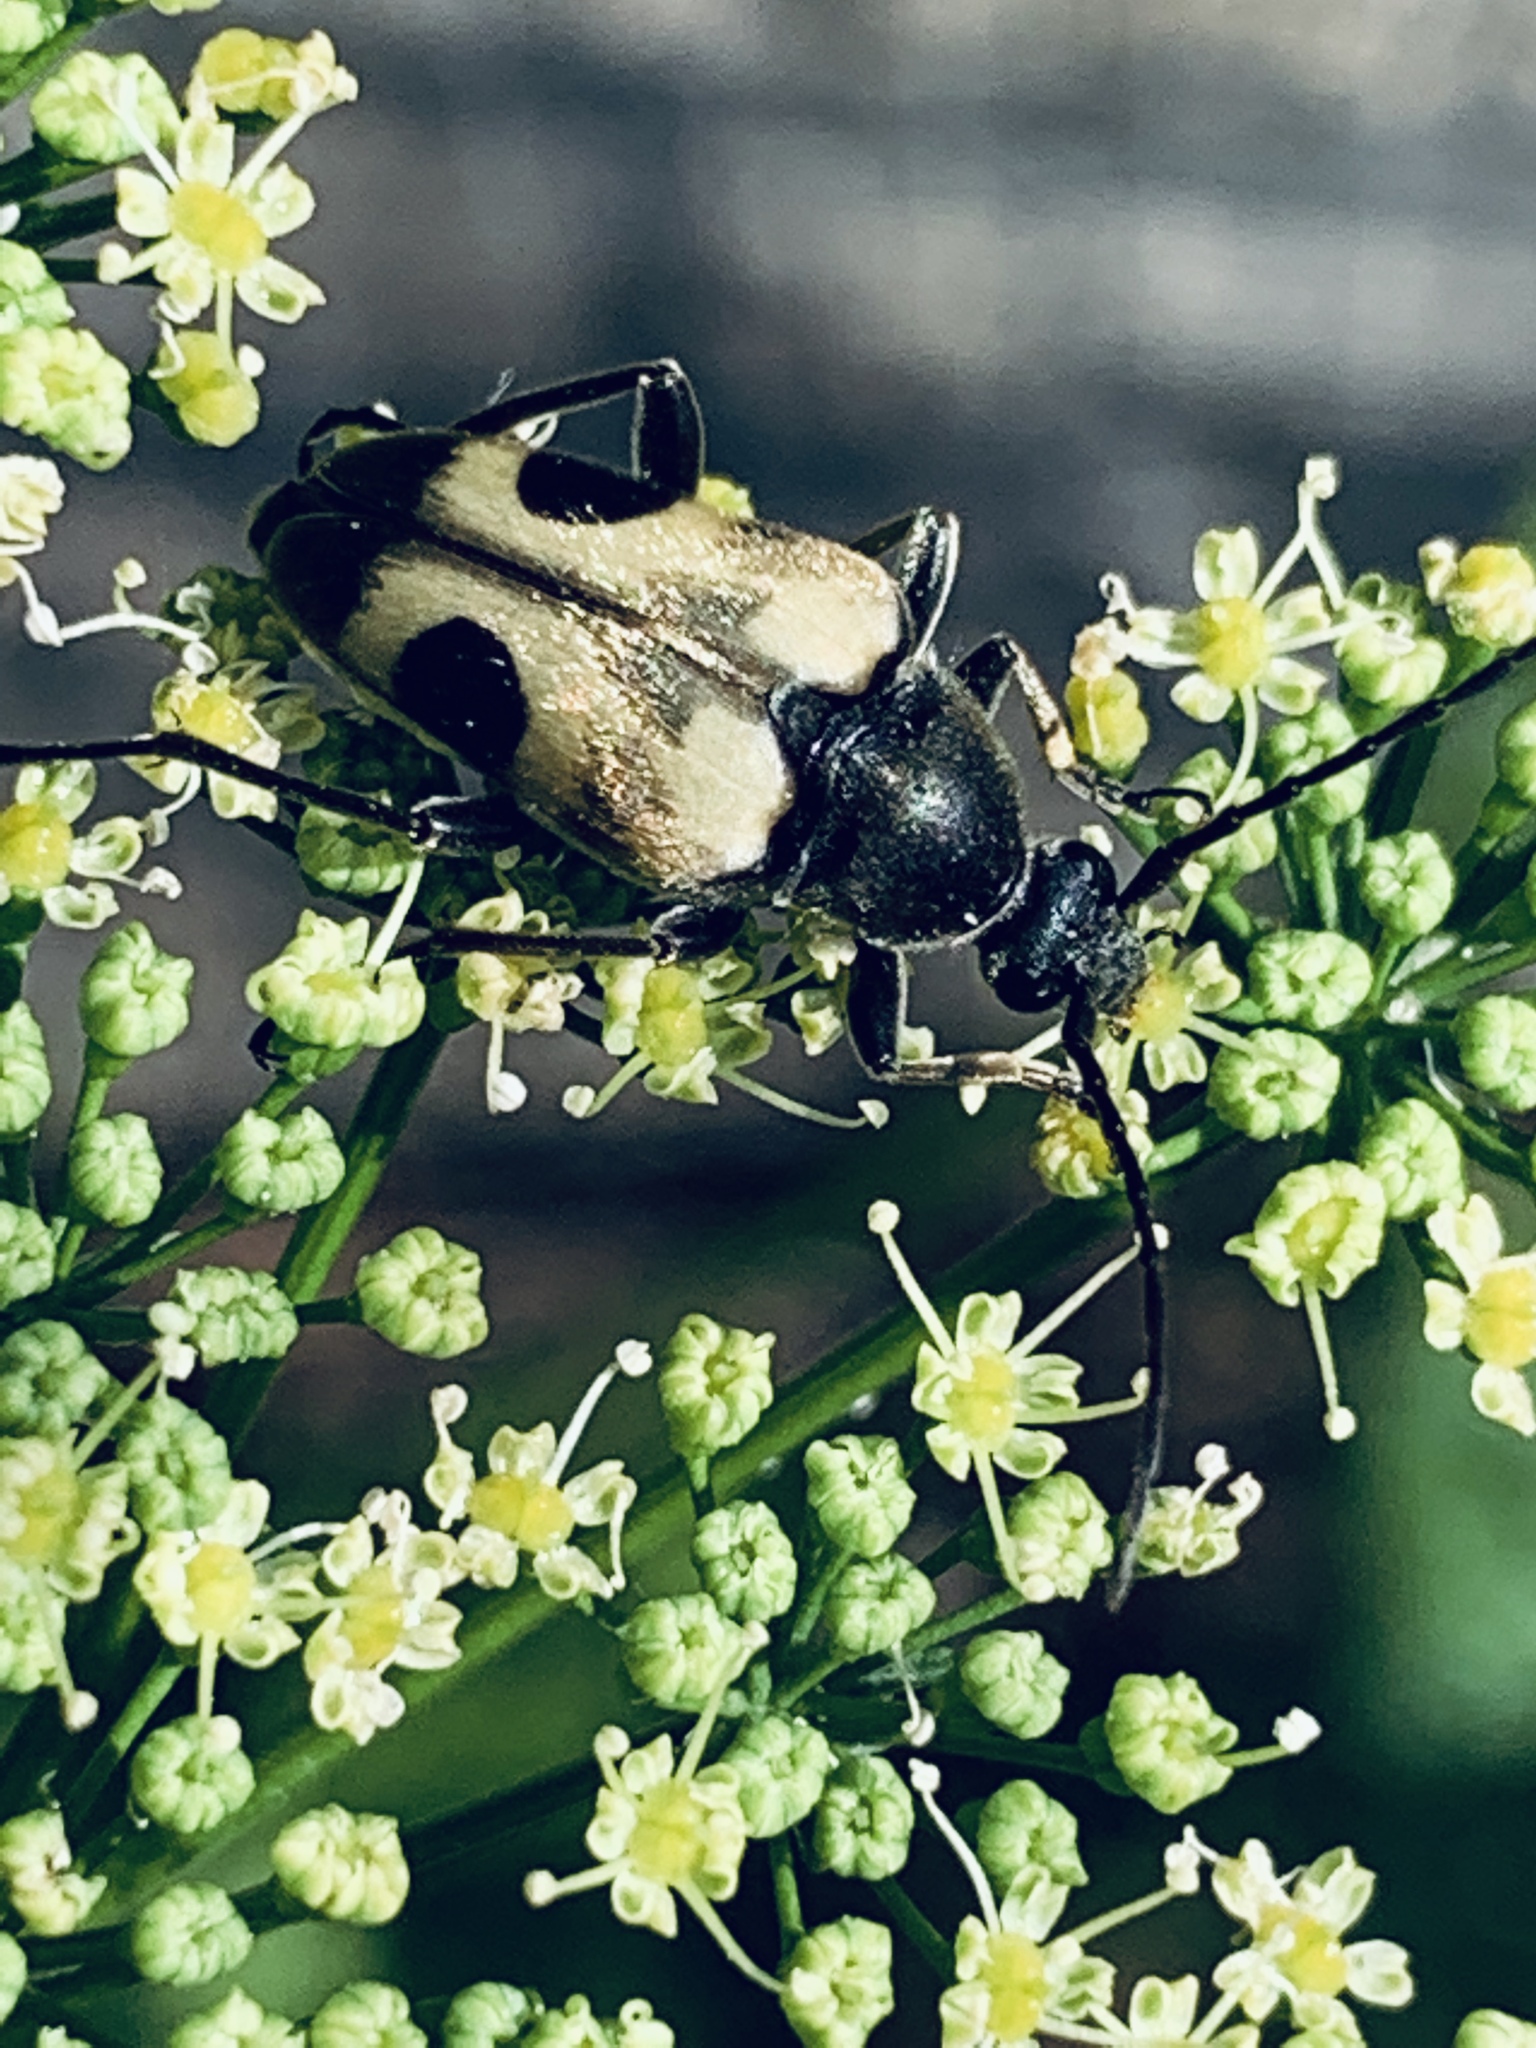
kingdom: Animalia
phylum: Arthropoda
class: Insecta
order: Coleoptera
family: Cerambycidae
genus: Judolia
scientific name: Judolia cordifera
